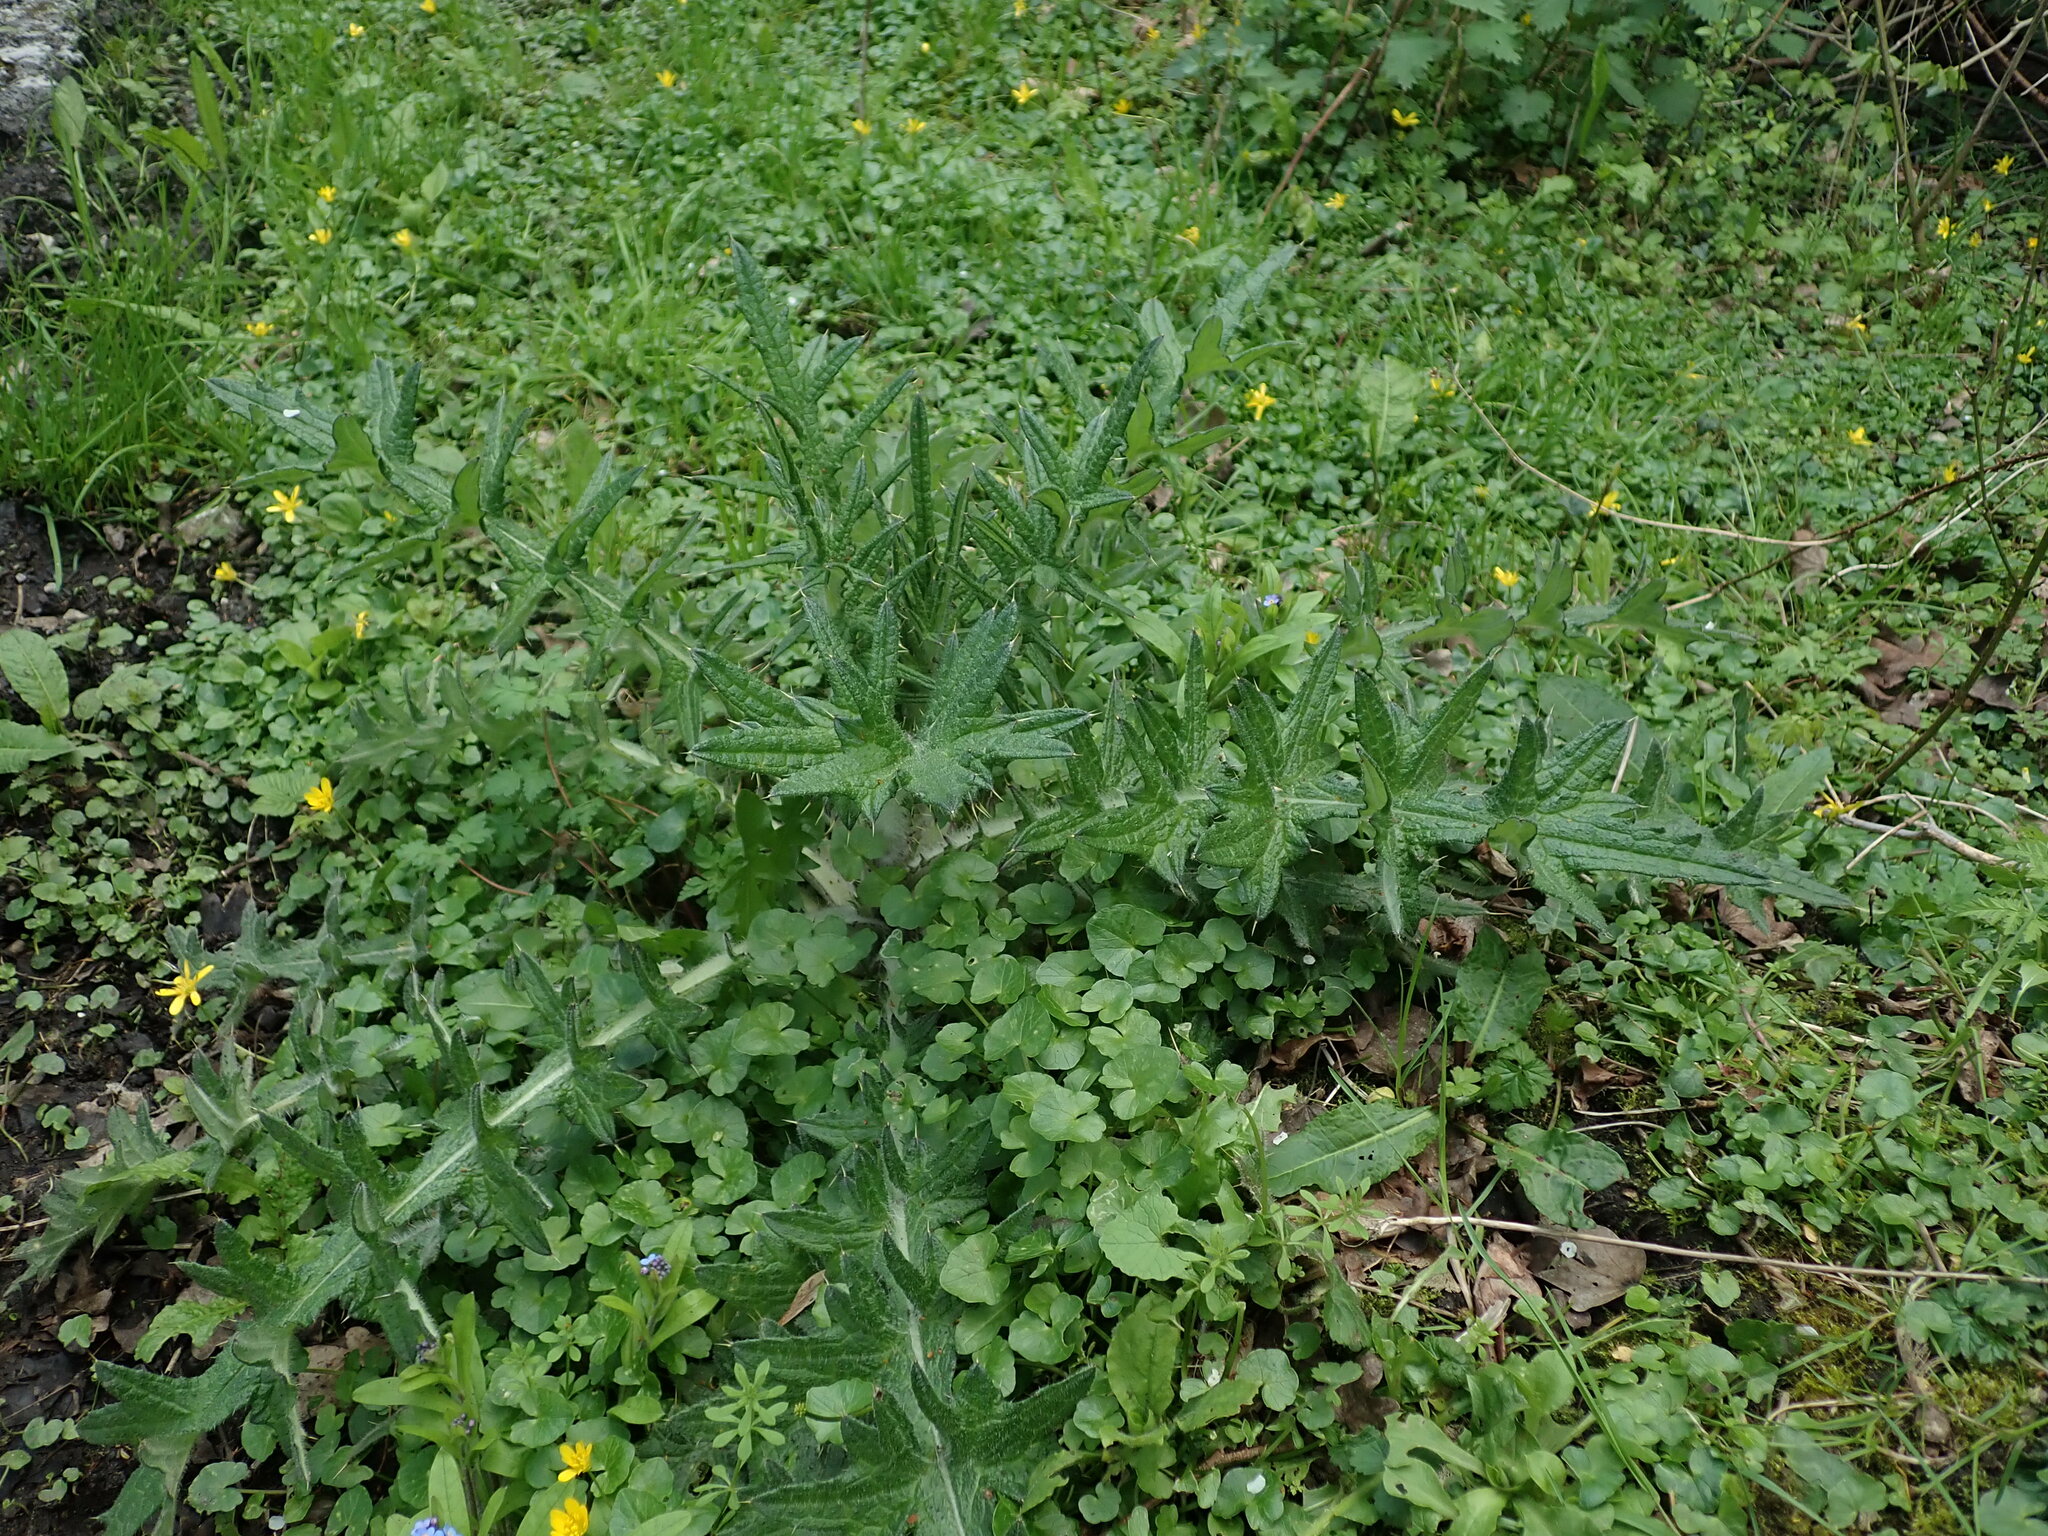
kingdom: Plantae
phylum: Tracheophyta
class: Magnoliopsida
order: Asterales
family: Asteraceae
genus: Cirsium
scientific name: Cirsium vulgare
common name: Bull thistle
